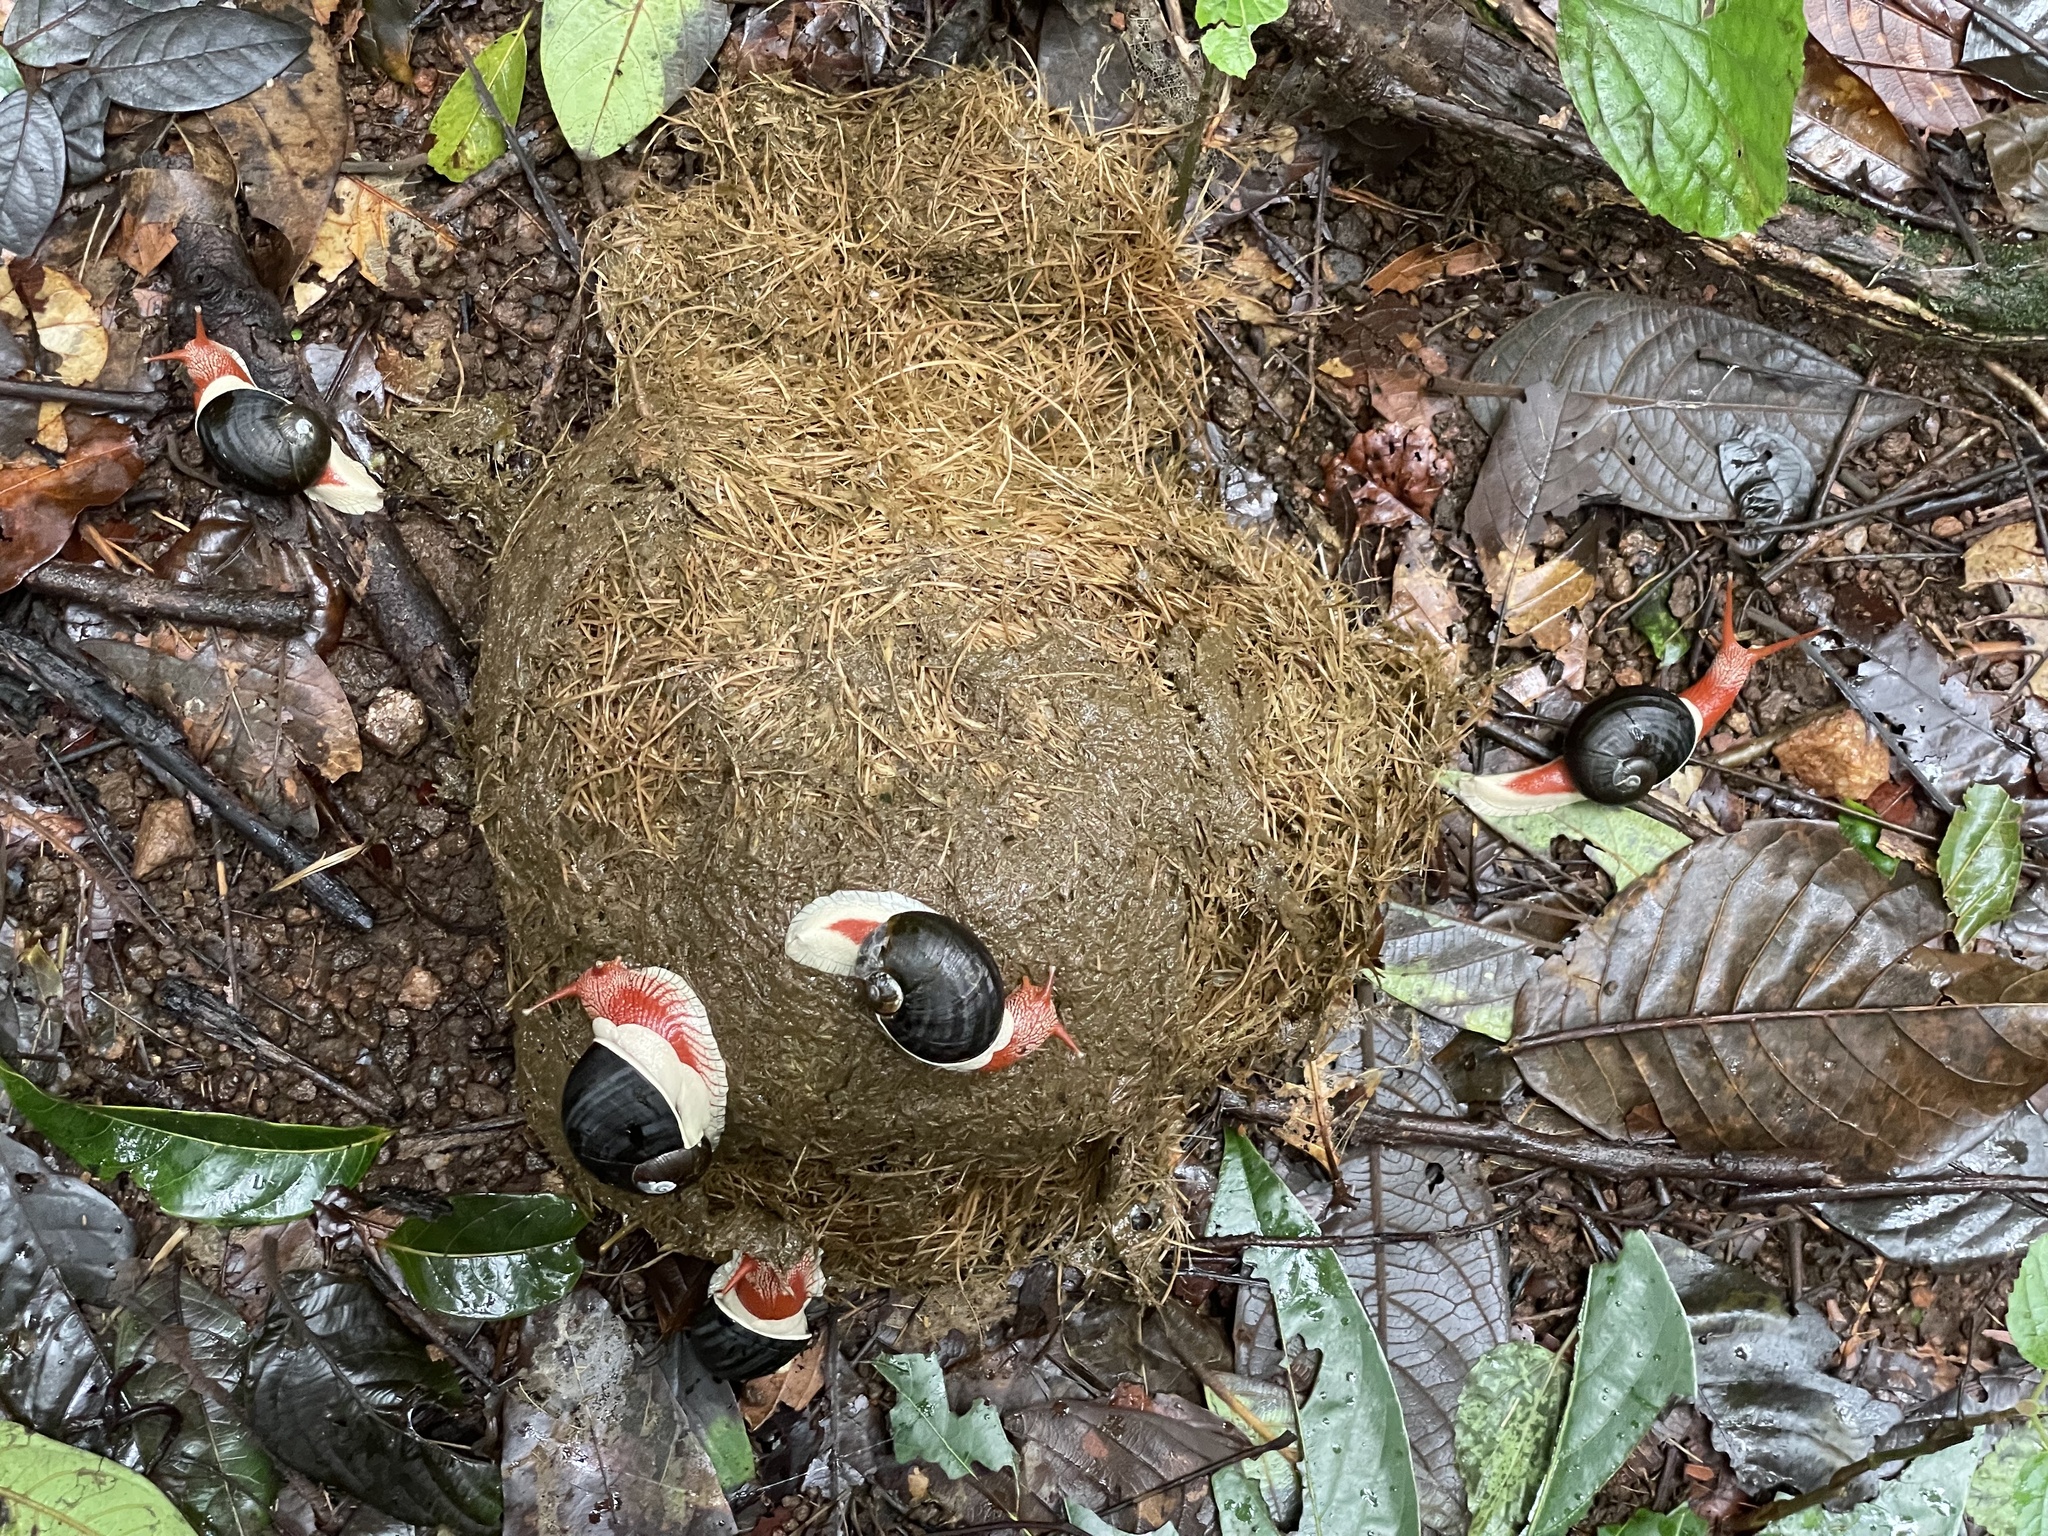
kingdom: Animalia
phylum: Chordata
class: Mammalia
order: Proboscidea
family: Elephantidae
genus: Elephas
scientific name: Elephas maximus
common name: Asian elephant
